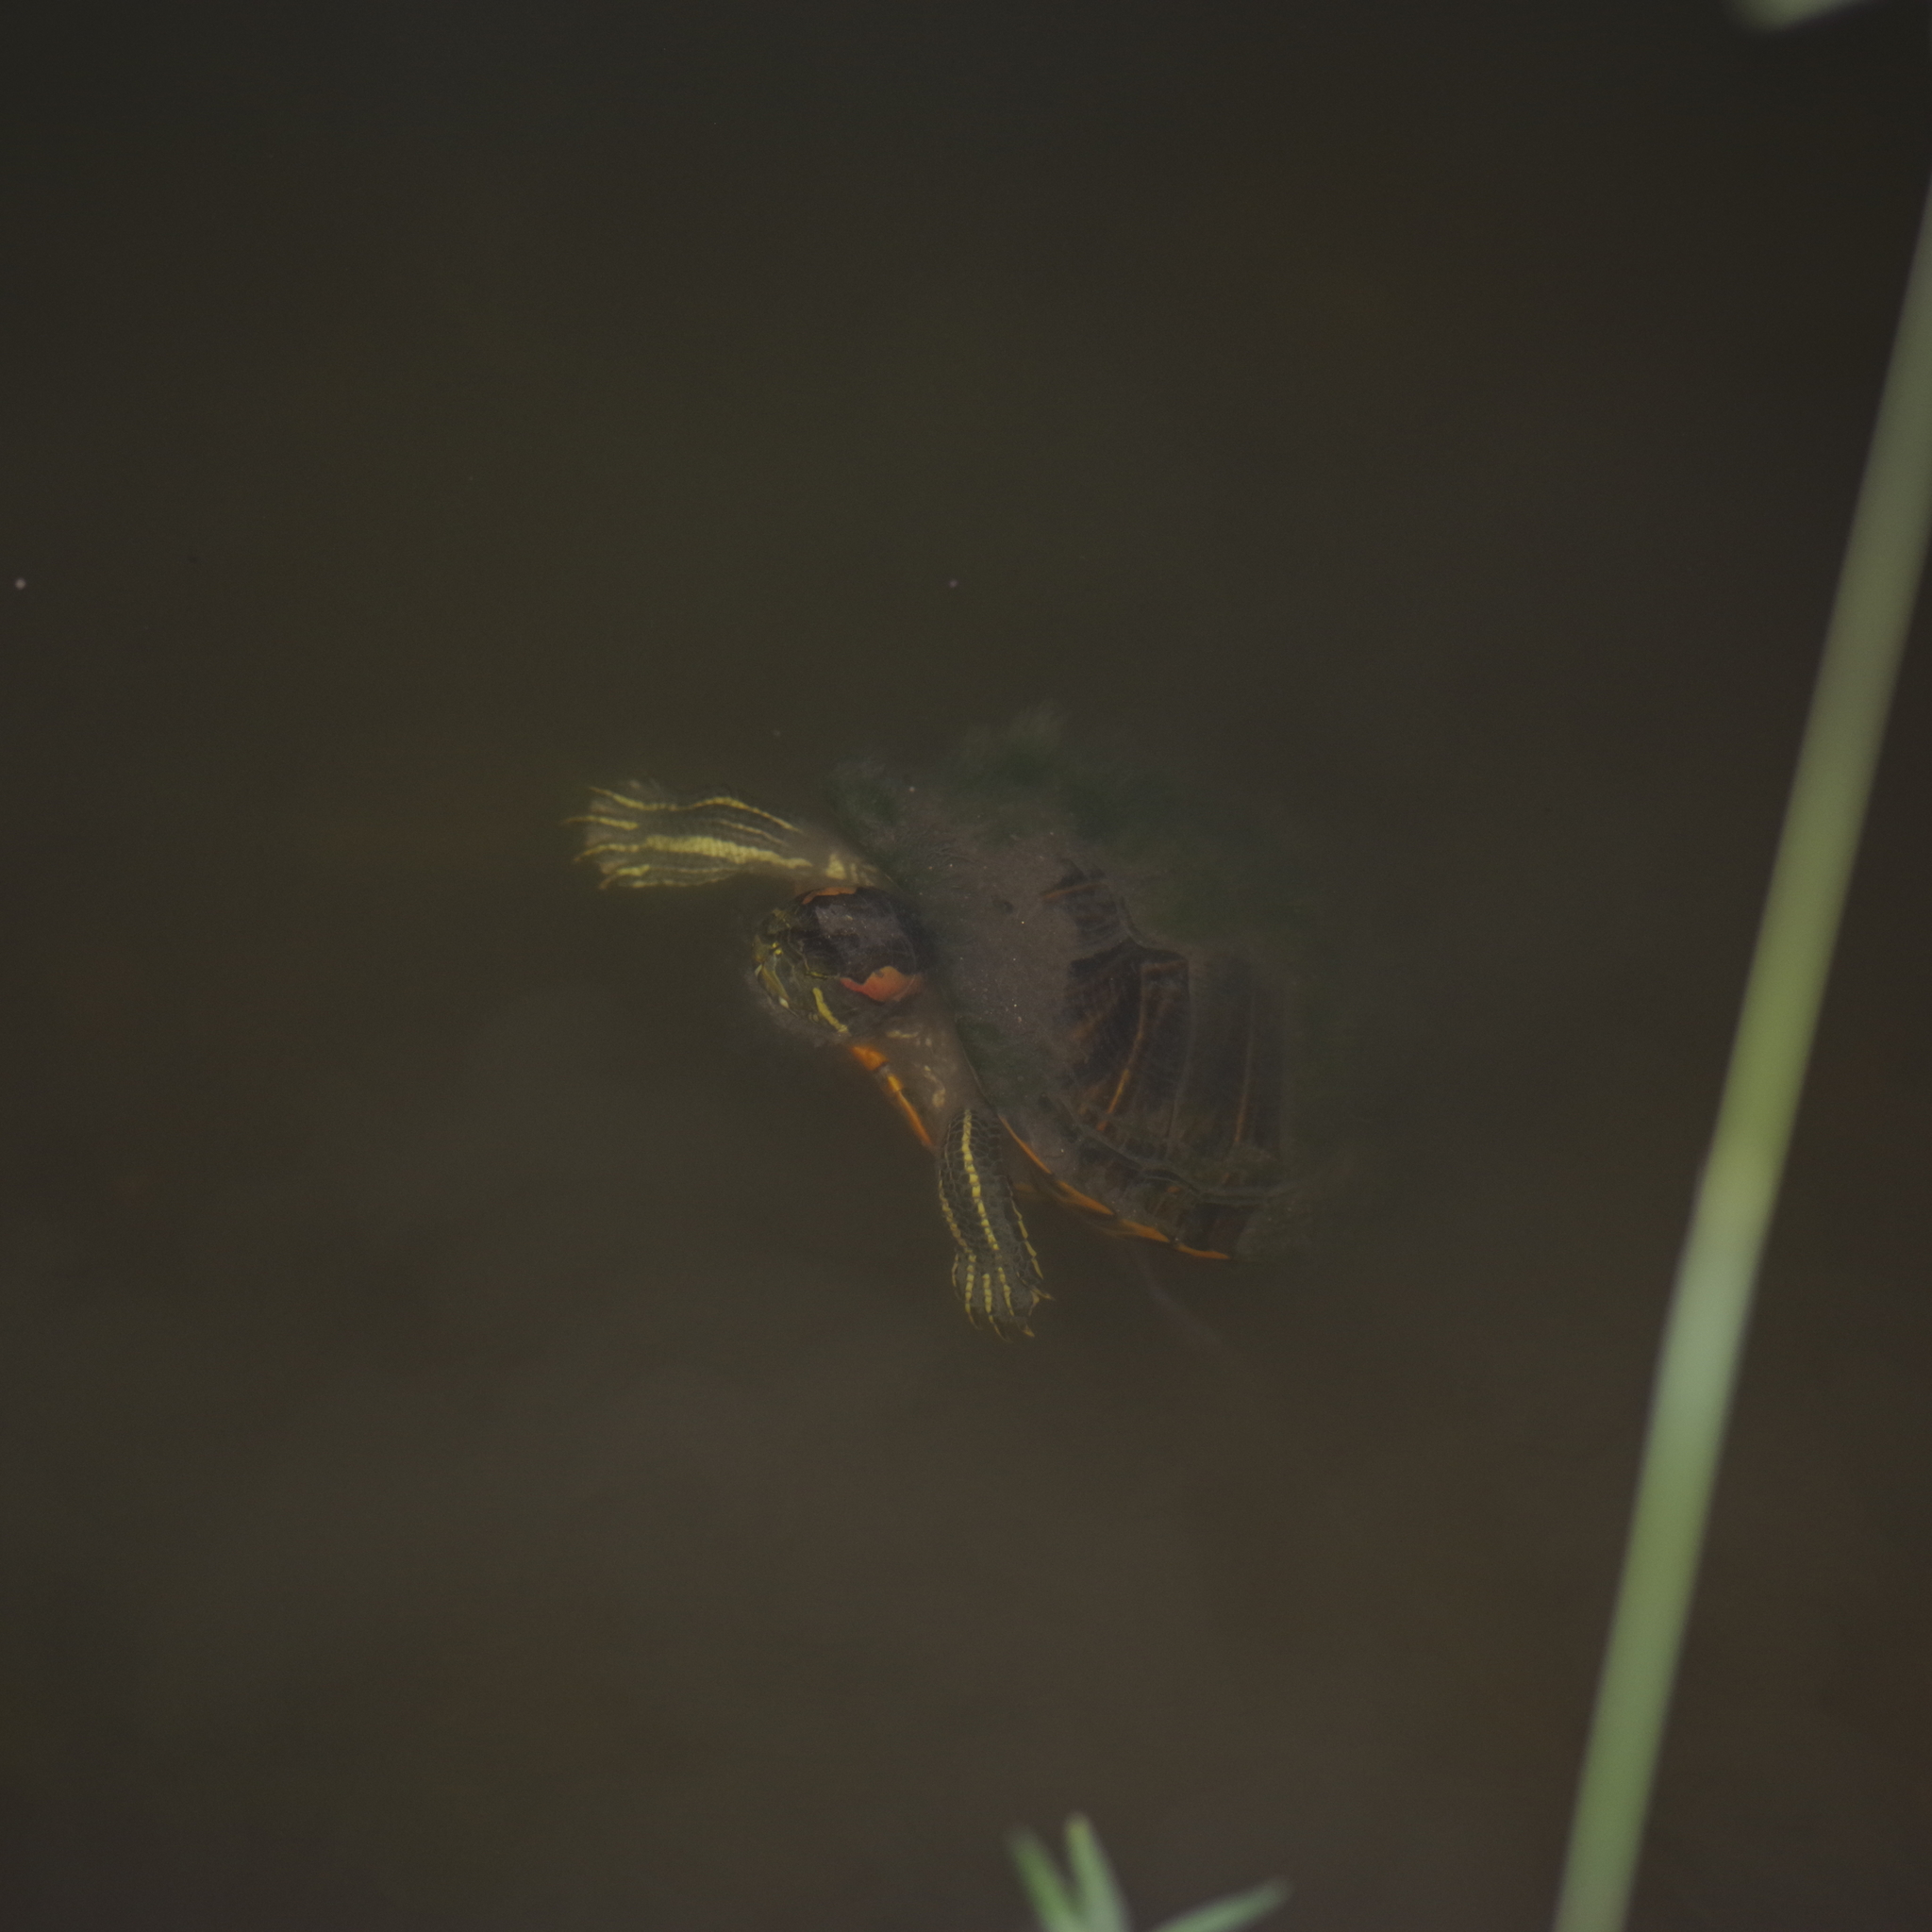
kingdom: Animalia
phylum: Chordata
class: Testudines
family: Emydidae
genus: Trachemys
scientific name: Trachemys scripta
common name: Slider
